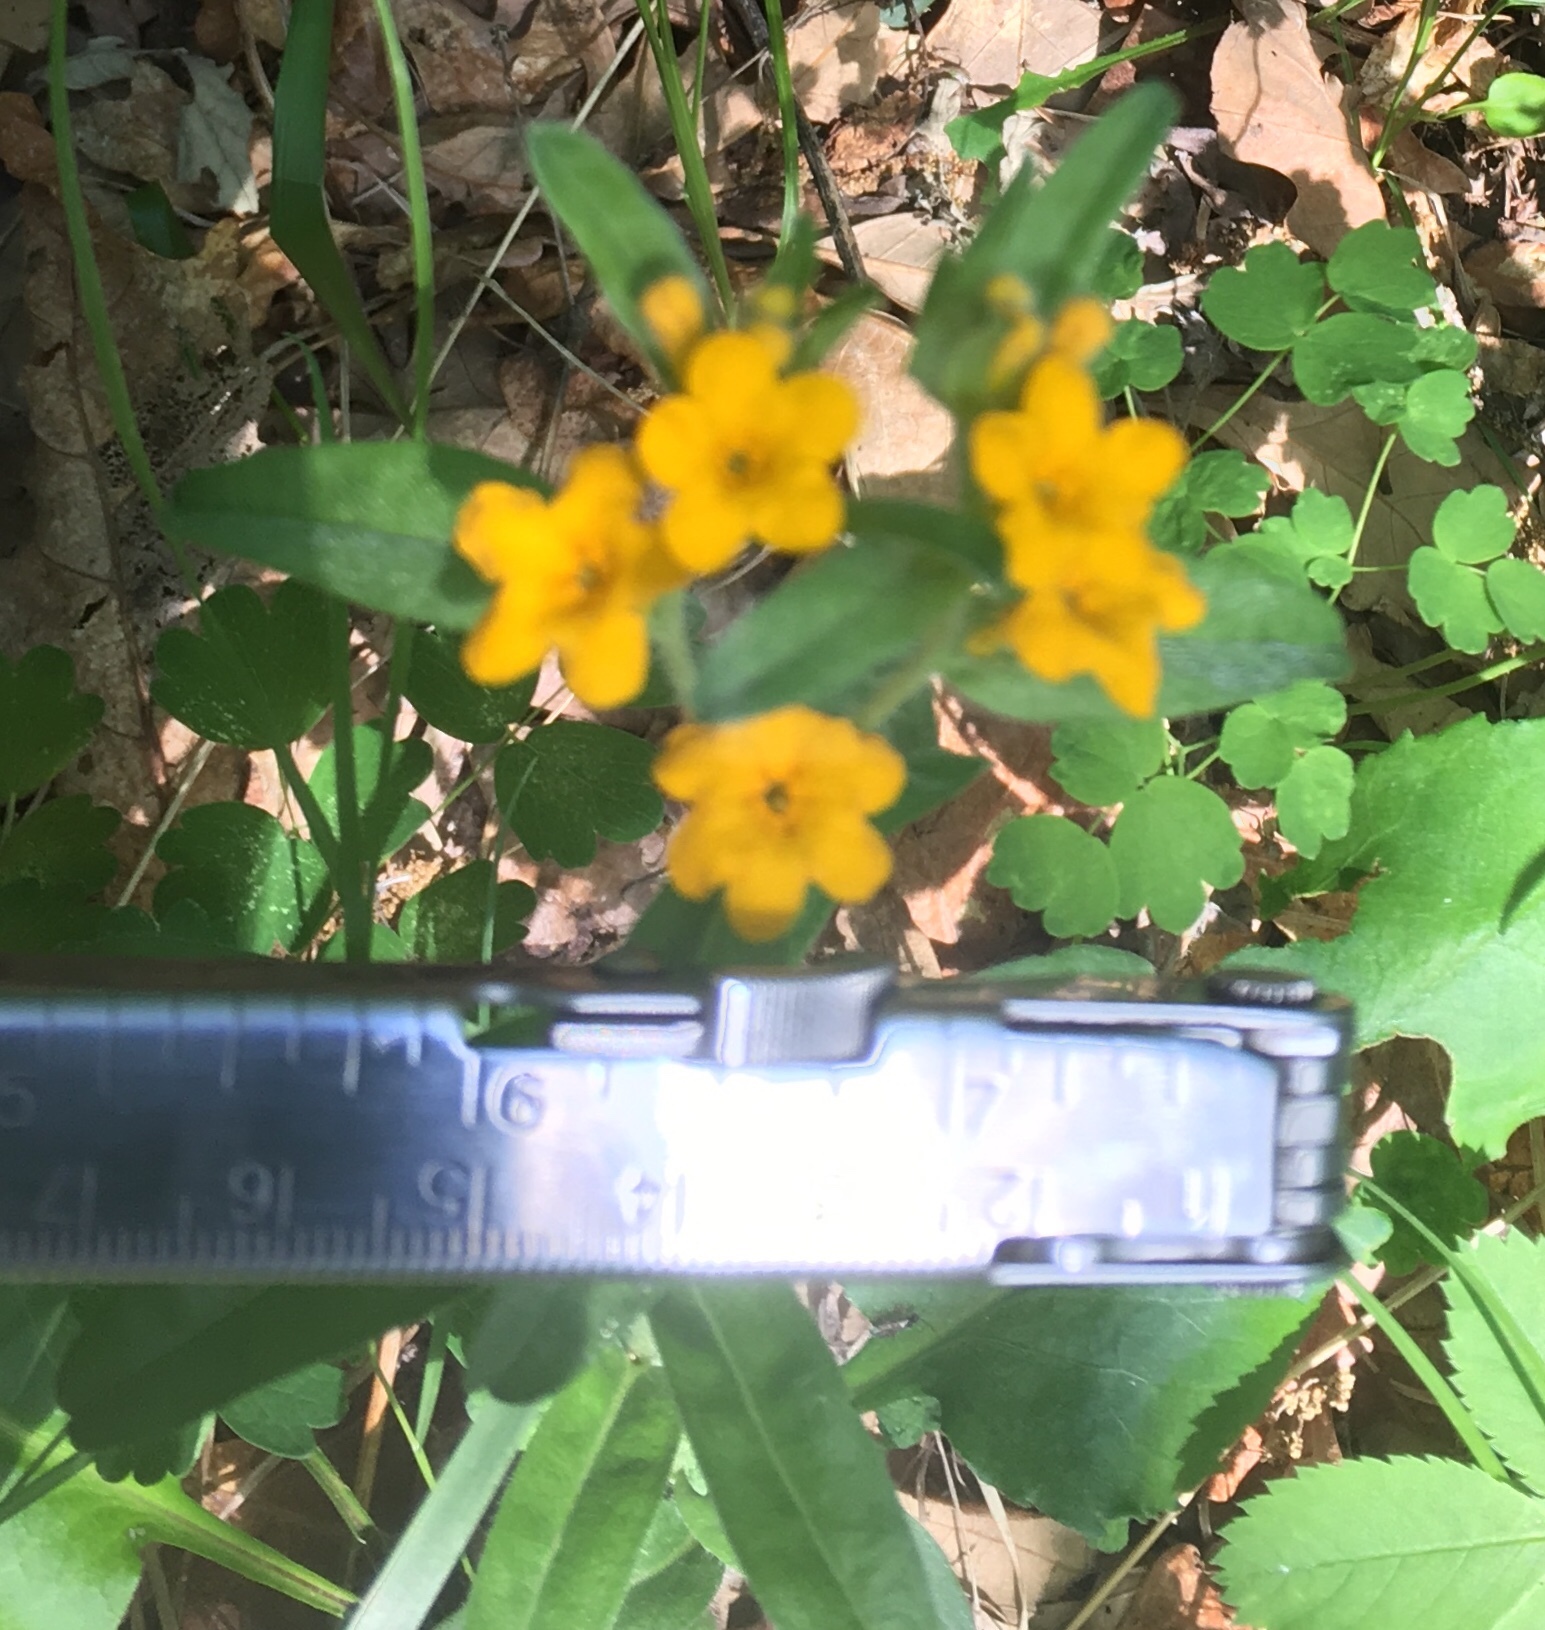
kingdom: Plantae
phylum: Tracheophyta
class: Magnoliopsida
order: Boraginales
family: Boraginaceae
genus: Lithospermum
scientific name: Lithospermum canescens
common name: Hoary puccoon
